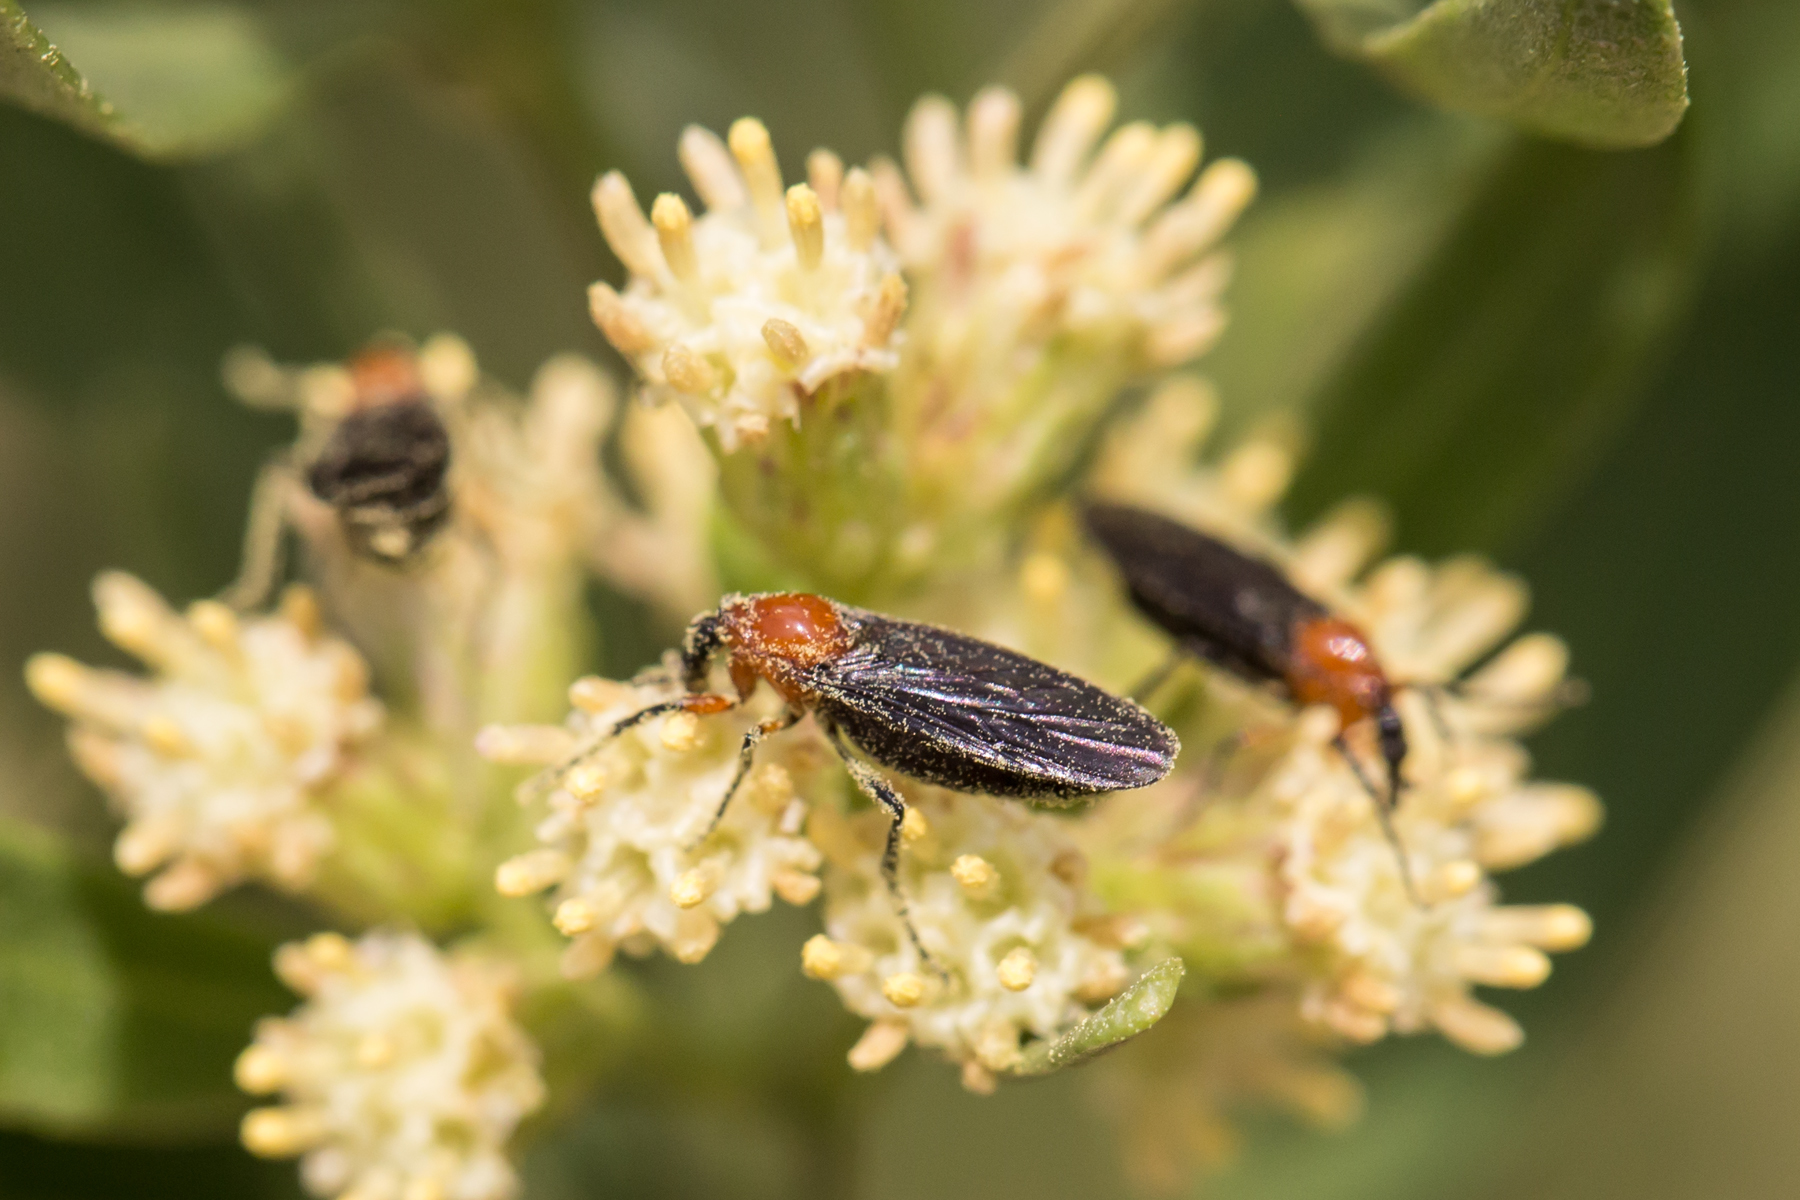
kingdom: Animalia
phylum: Arthropoda
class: Insecta
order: Diptera
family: Bibionidae
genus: Dilophus
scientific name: Dilophus spinipes
